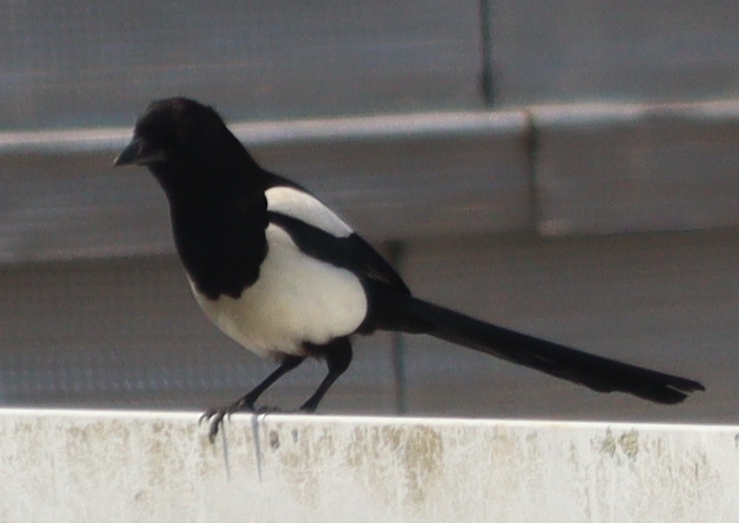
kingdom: Animalia
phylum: Chordata
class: Aves
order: Passeriformes
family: Corvidae
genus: Pica
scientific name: Pica pica
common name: Eurasian magpie
